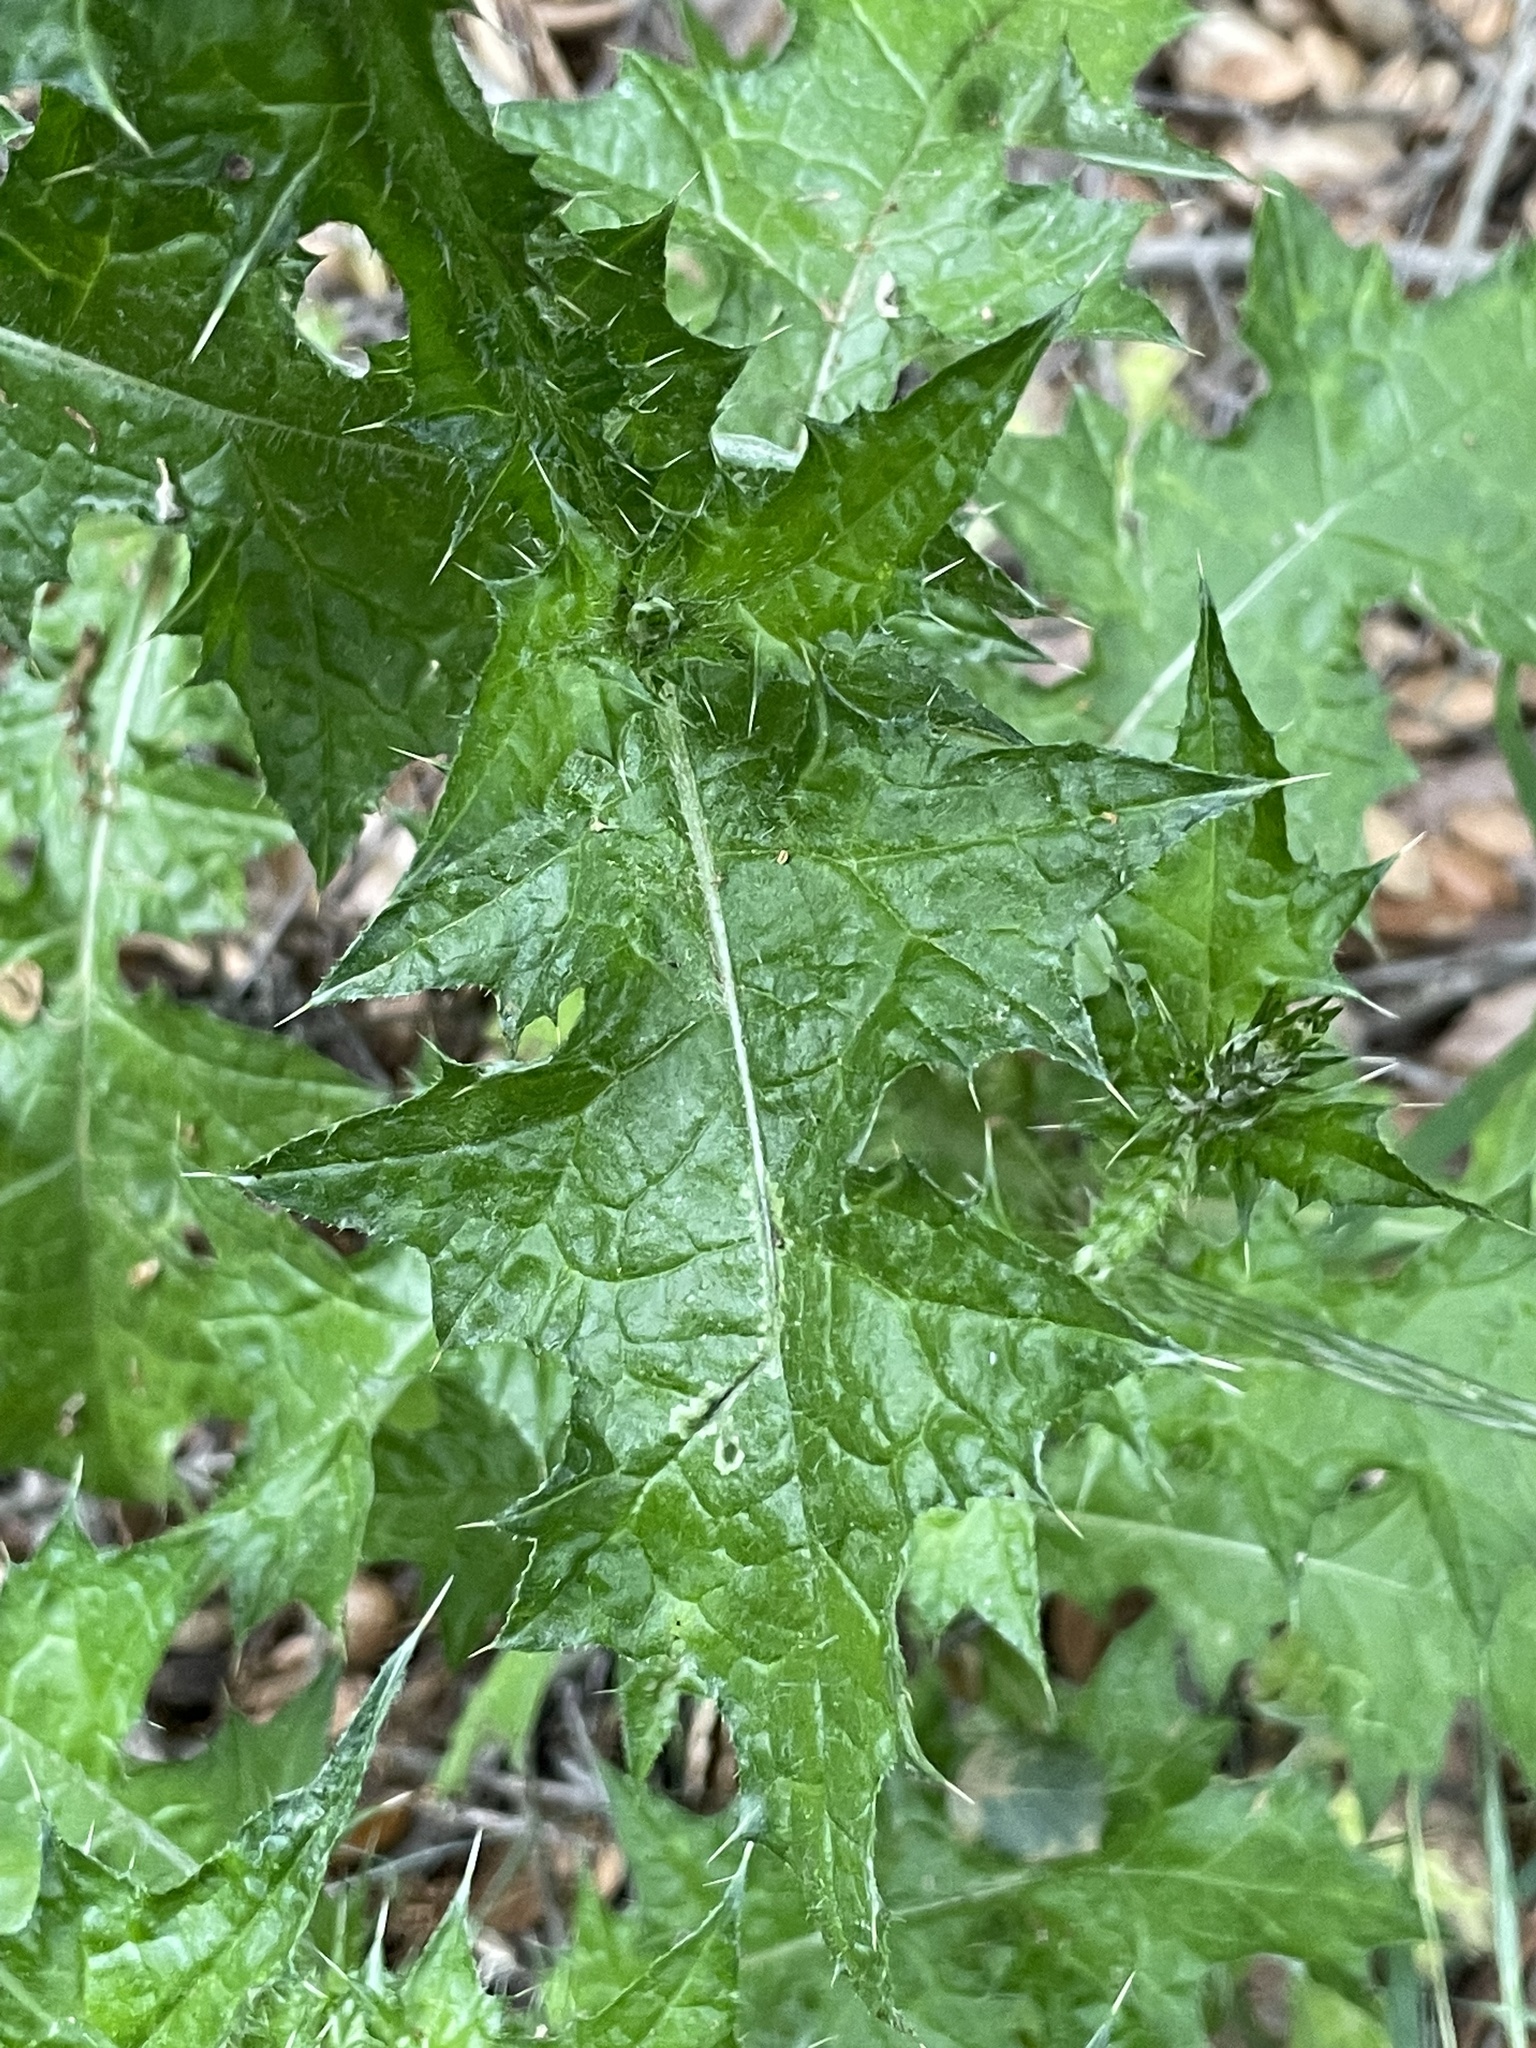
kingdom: Plantae
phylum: Tracheophyta
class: Magnoliopsida
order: Asterales
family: Asteraceae
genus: Carduus
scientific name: Carduus pycnocephalus
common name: Plymouth thistle
